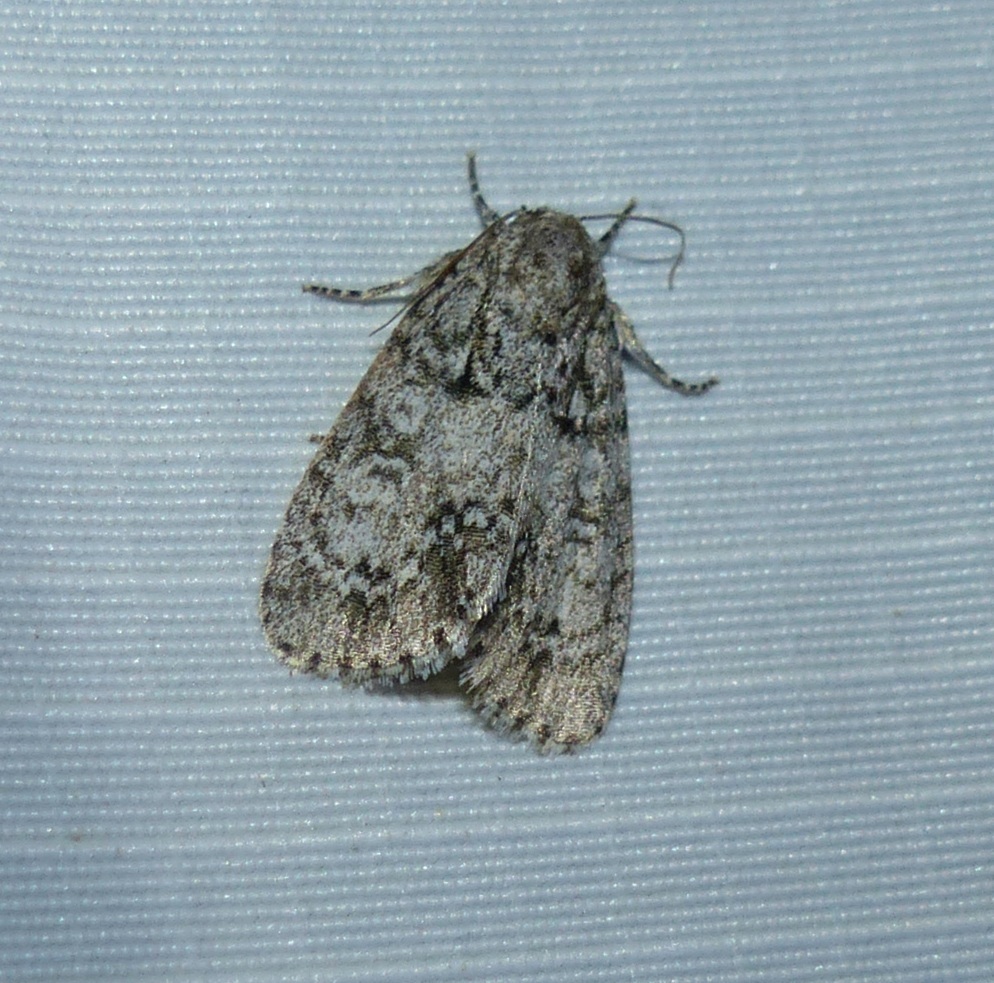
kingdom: Animalia
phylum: Arthropoda
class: Insecta
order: Lepidoptera
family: Noctuidae
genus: Acronicta
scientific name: Acronicta retardata
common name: Maple dagger
